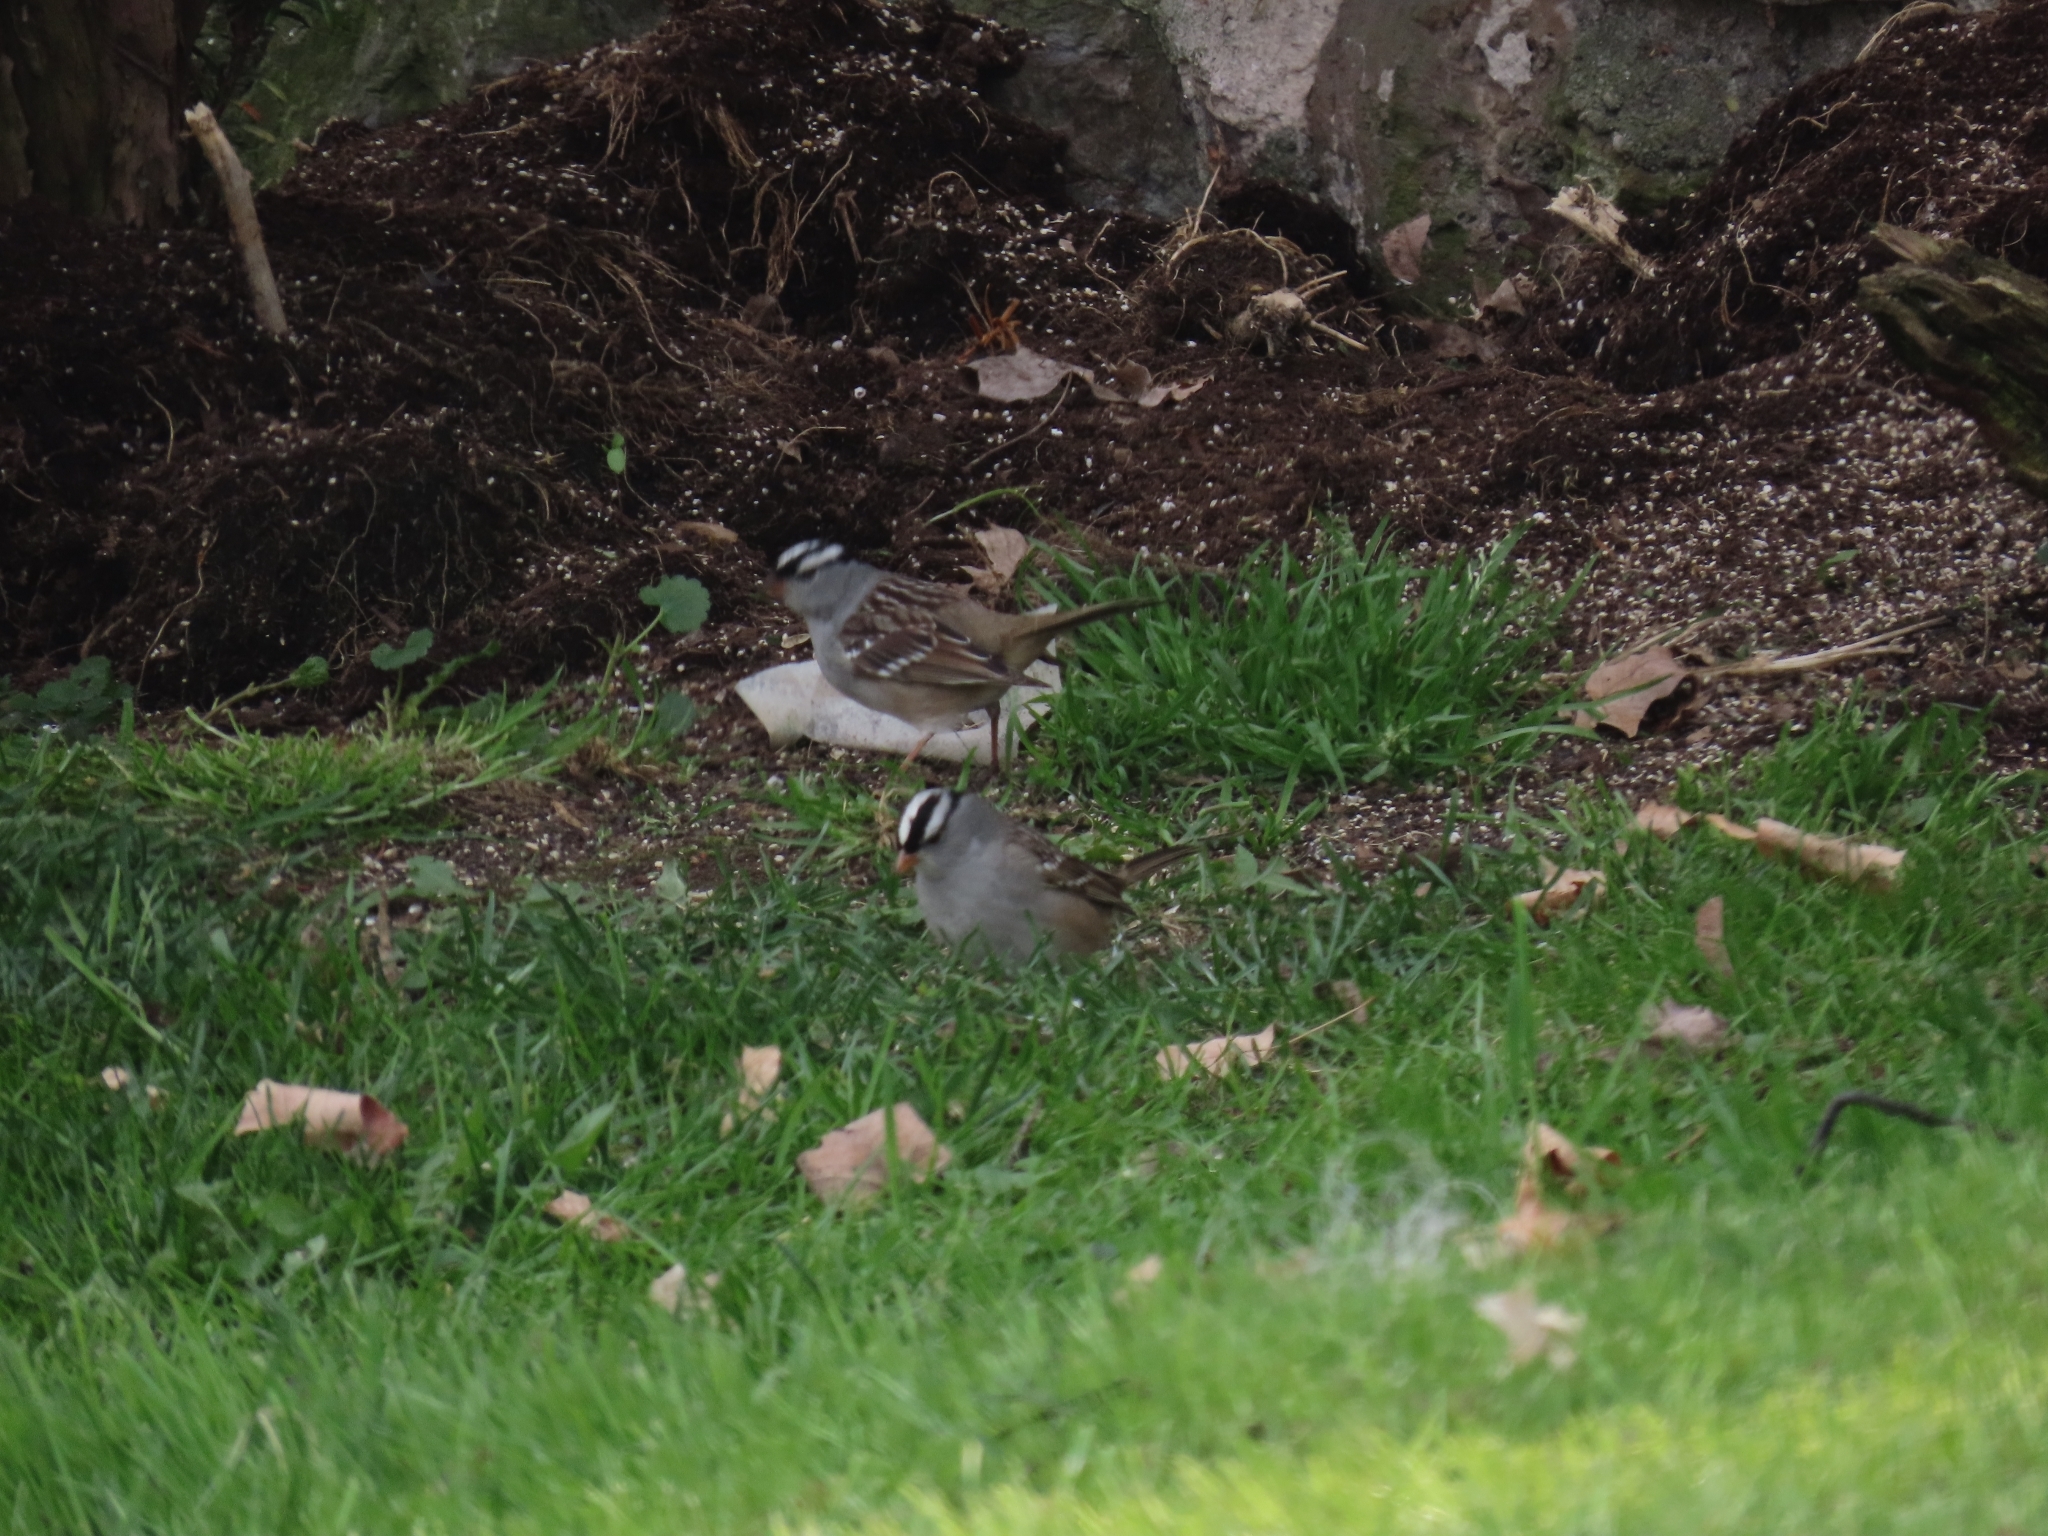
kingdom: Animalia
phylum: Chordata
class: Aves
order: Passeriformes
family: Passerellidae
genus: Zonotrichia
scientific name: Zonotrichia leucophrys
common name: White-crowned sparrow
